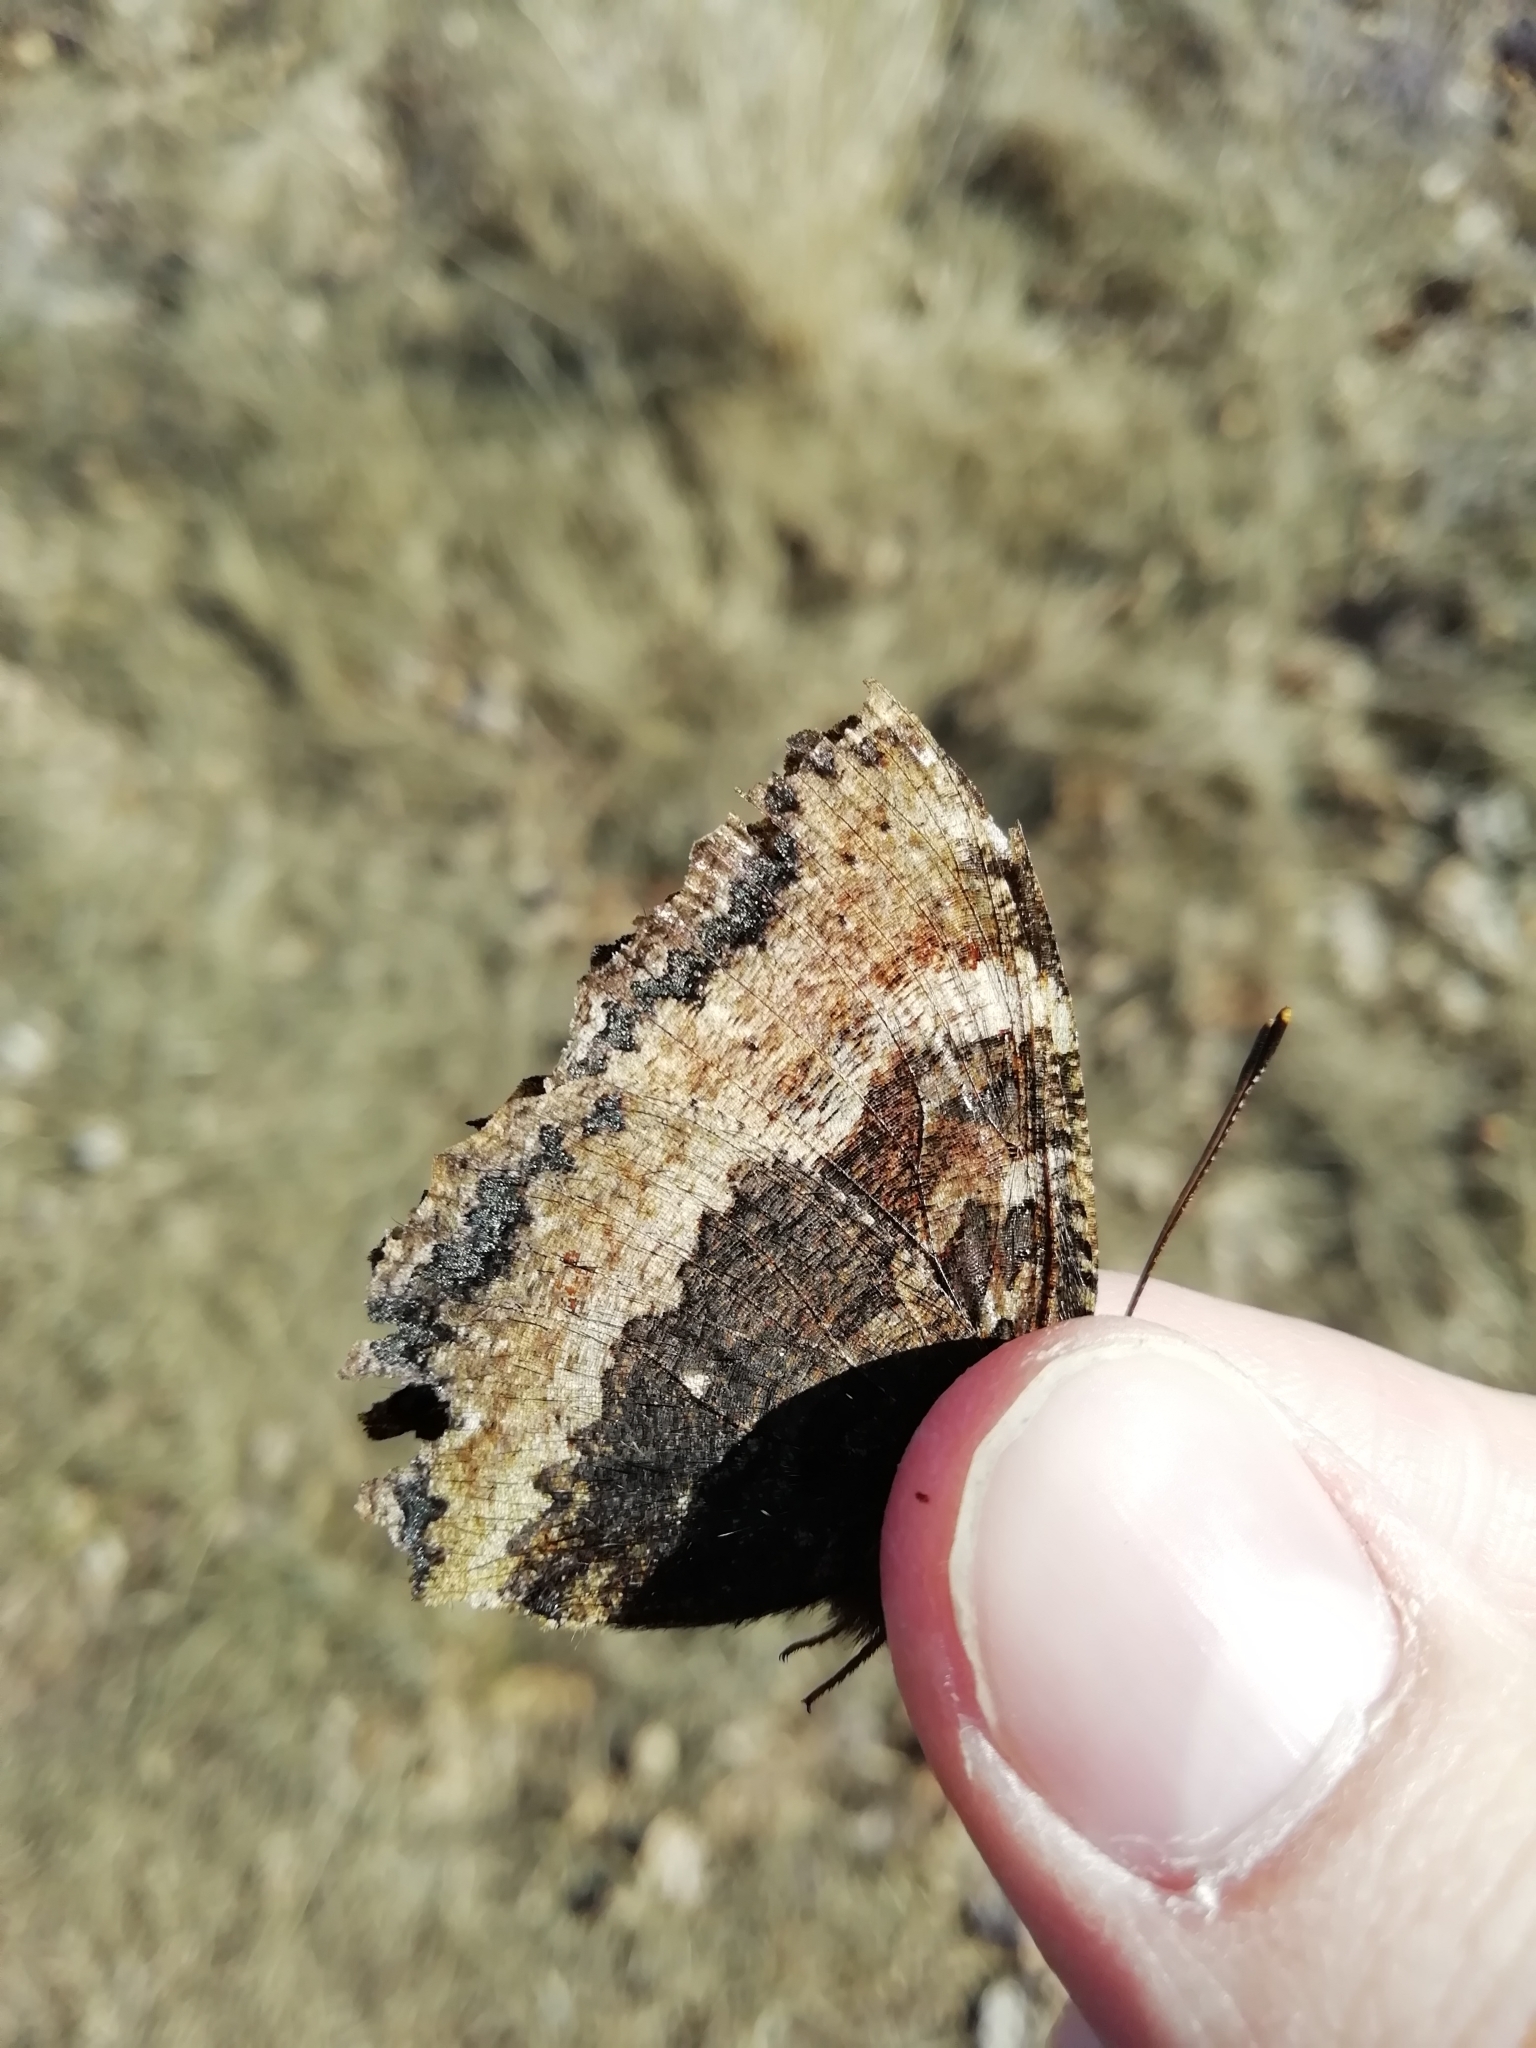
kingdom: Animalia
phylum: Arthropoda
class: Insecta
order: Lepidoptera
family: Nymphalidae
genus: Nymphalis
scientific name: Nymphalis xanthomelas
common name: Scarce tortoiseshell
